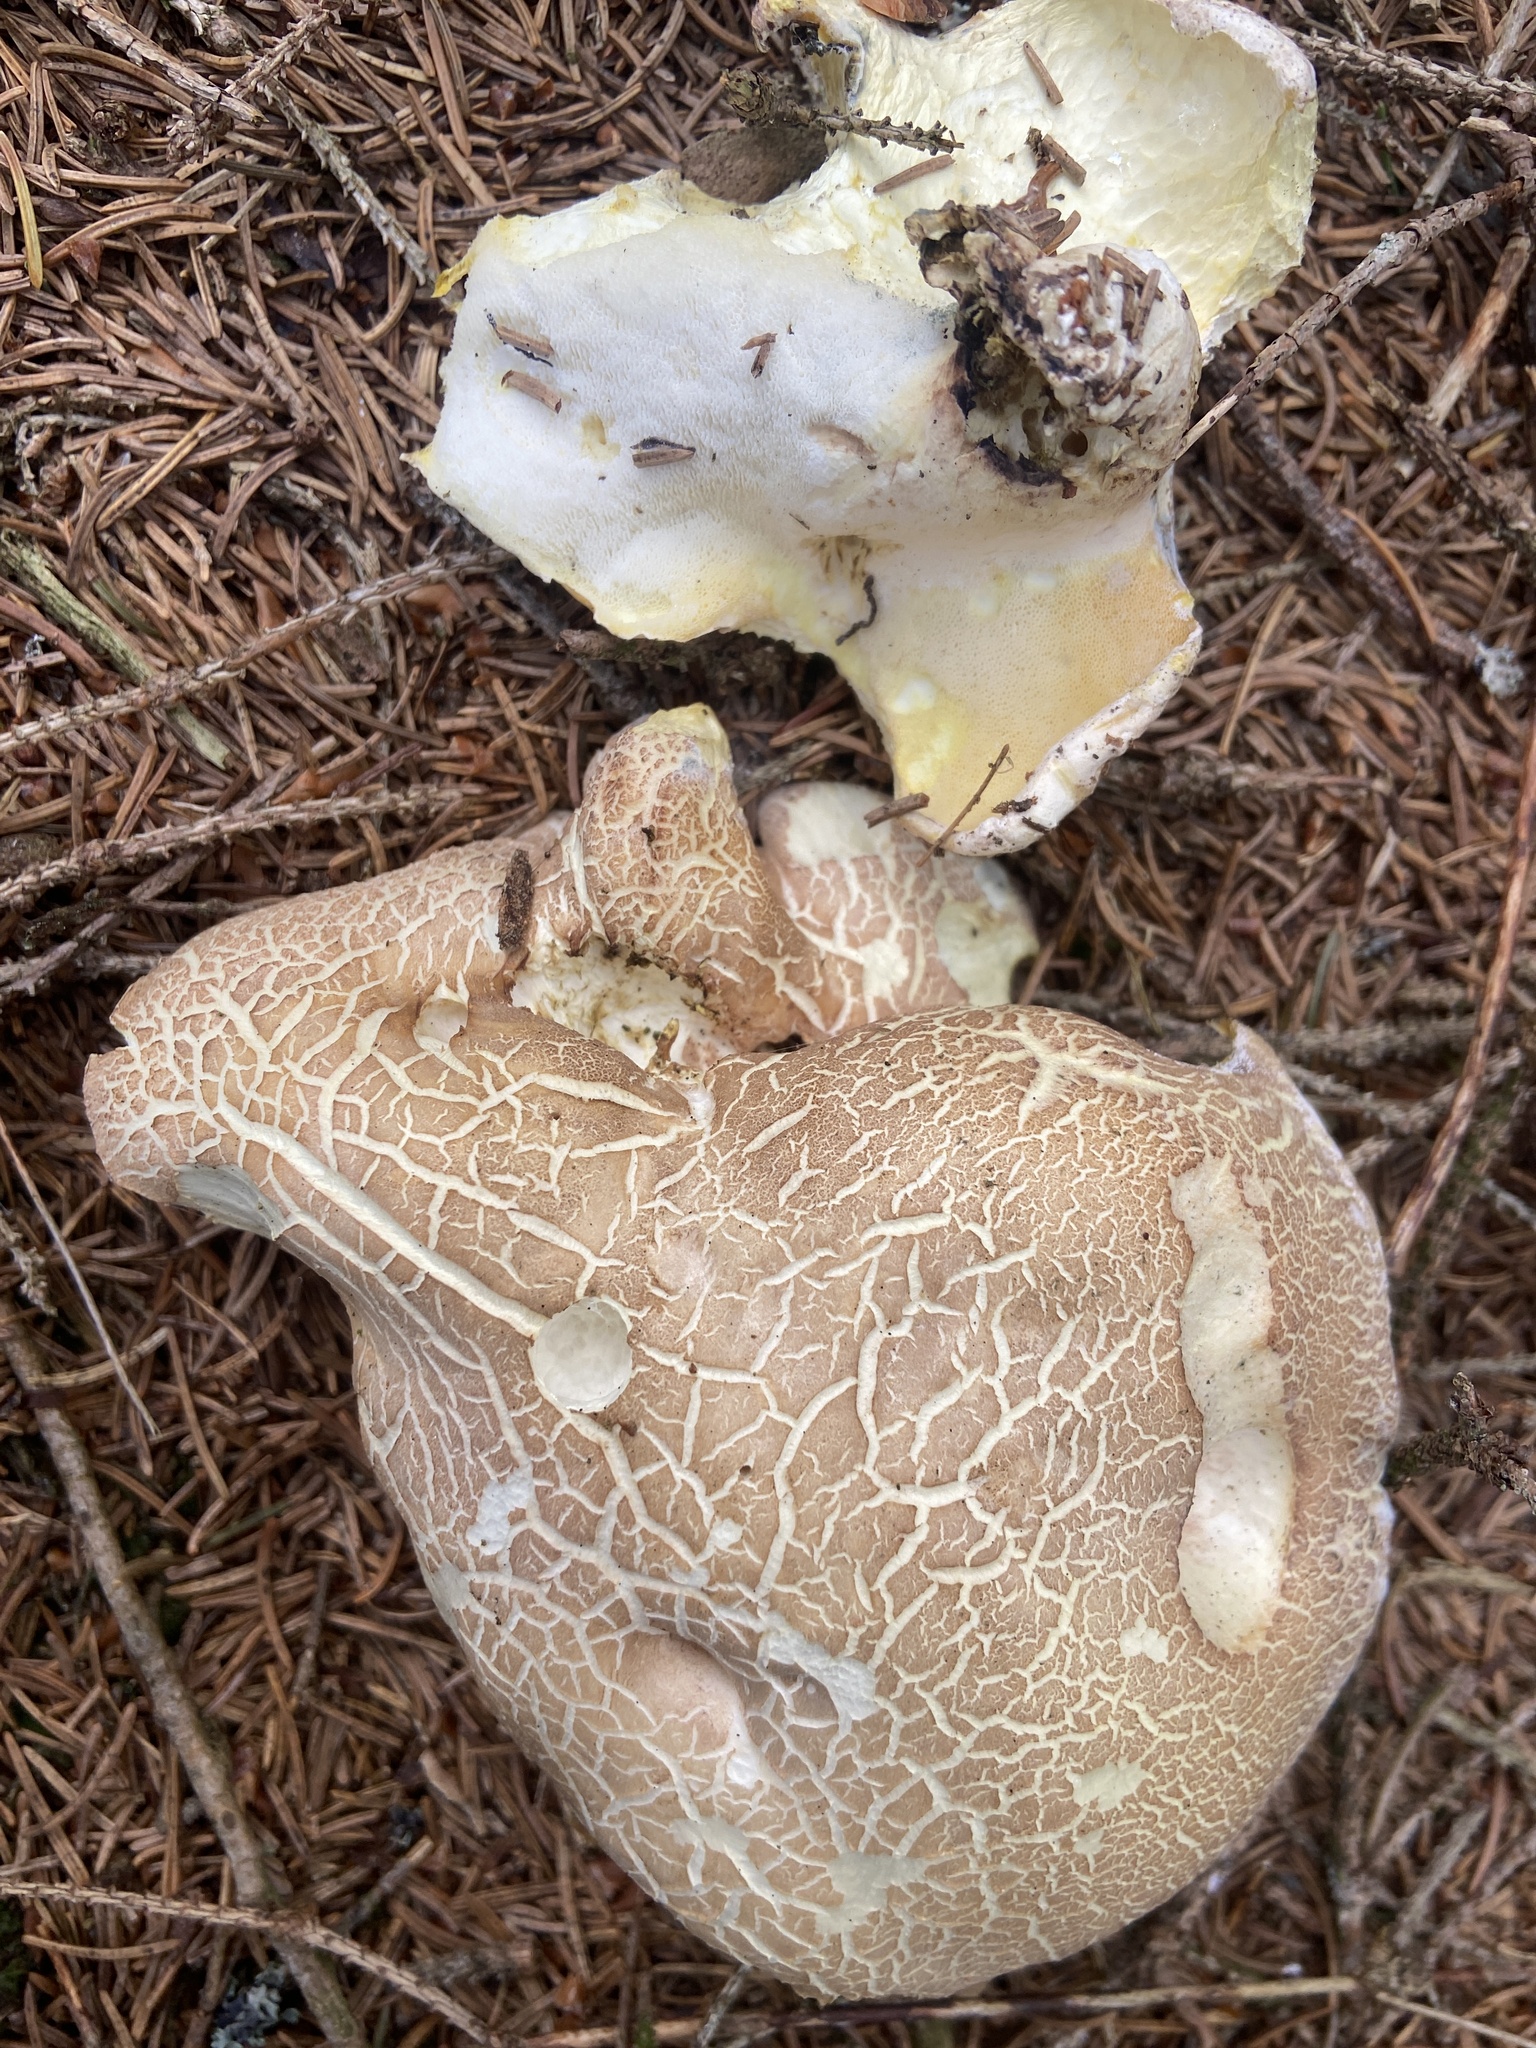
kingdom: Fungi
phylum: Basidiomycota
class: Agaricomycetes
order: Russulales
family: Albatrellaceae
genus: Albatrellus
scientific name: Albatrellus ovinus
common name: Forest lamb
